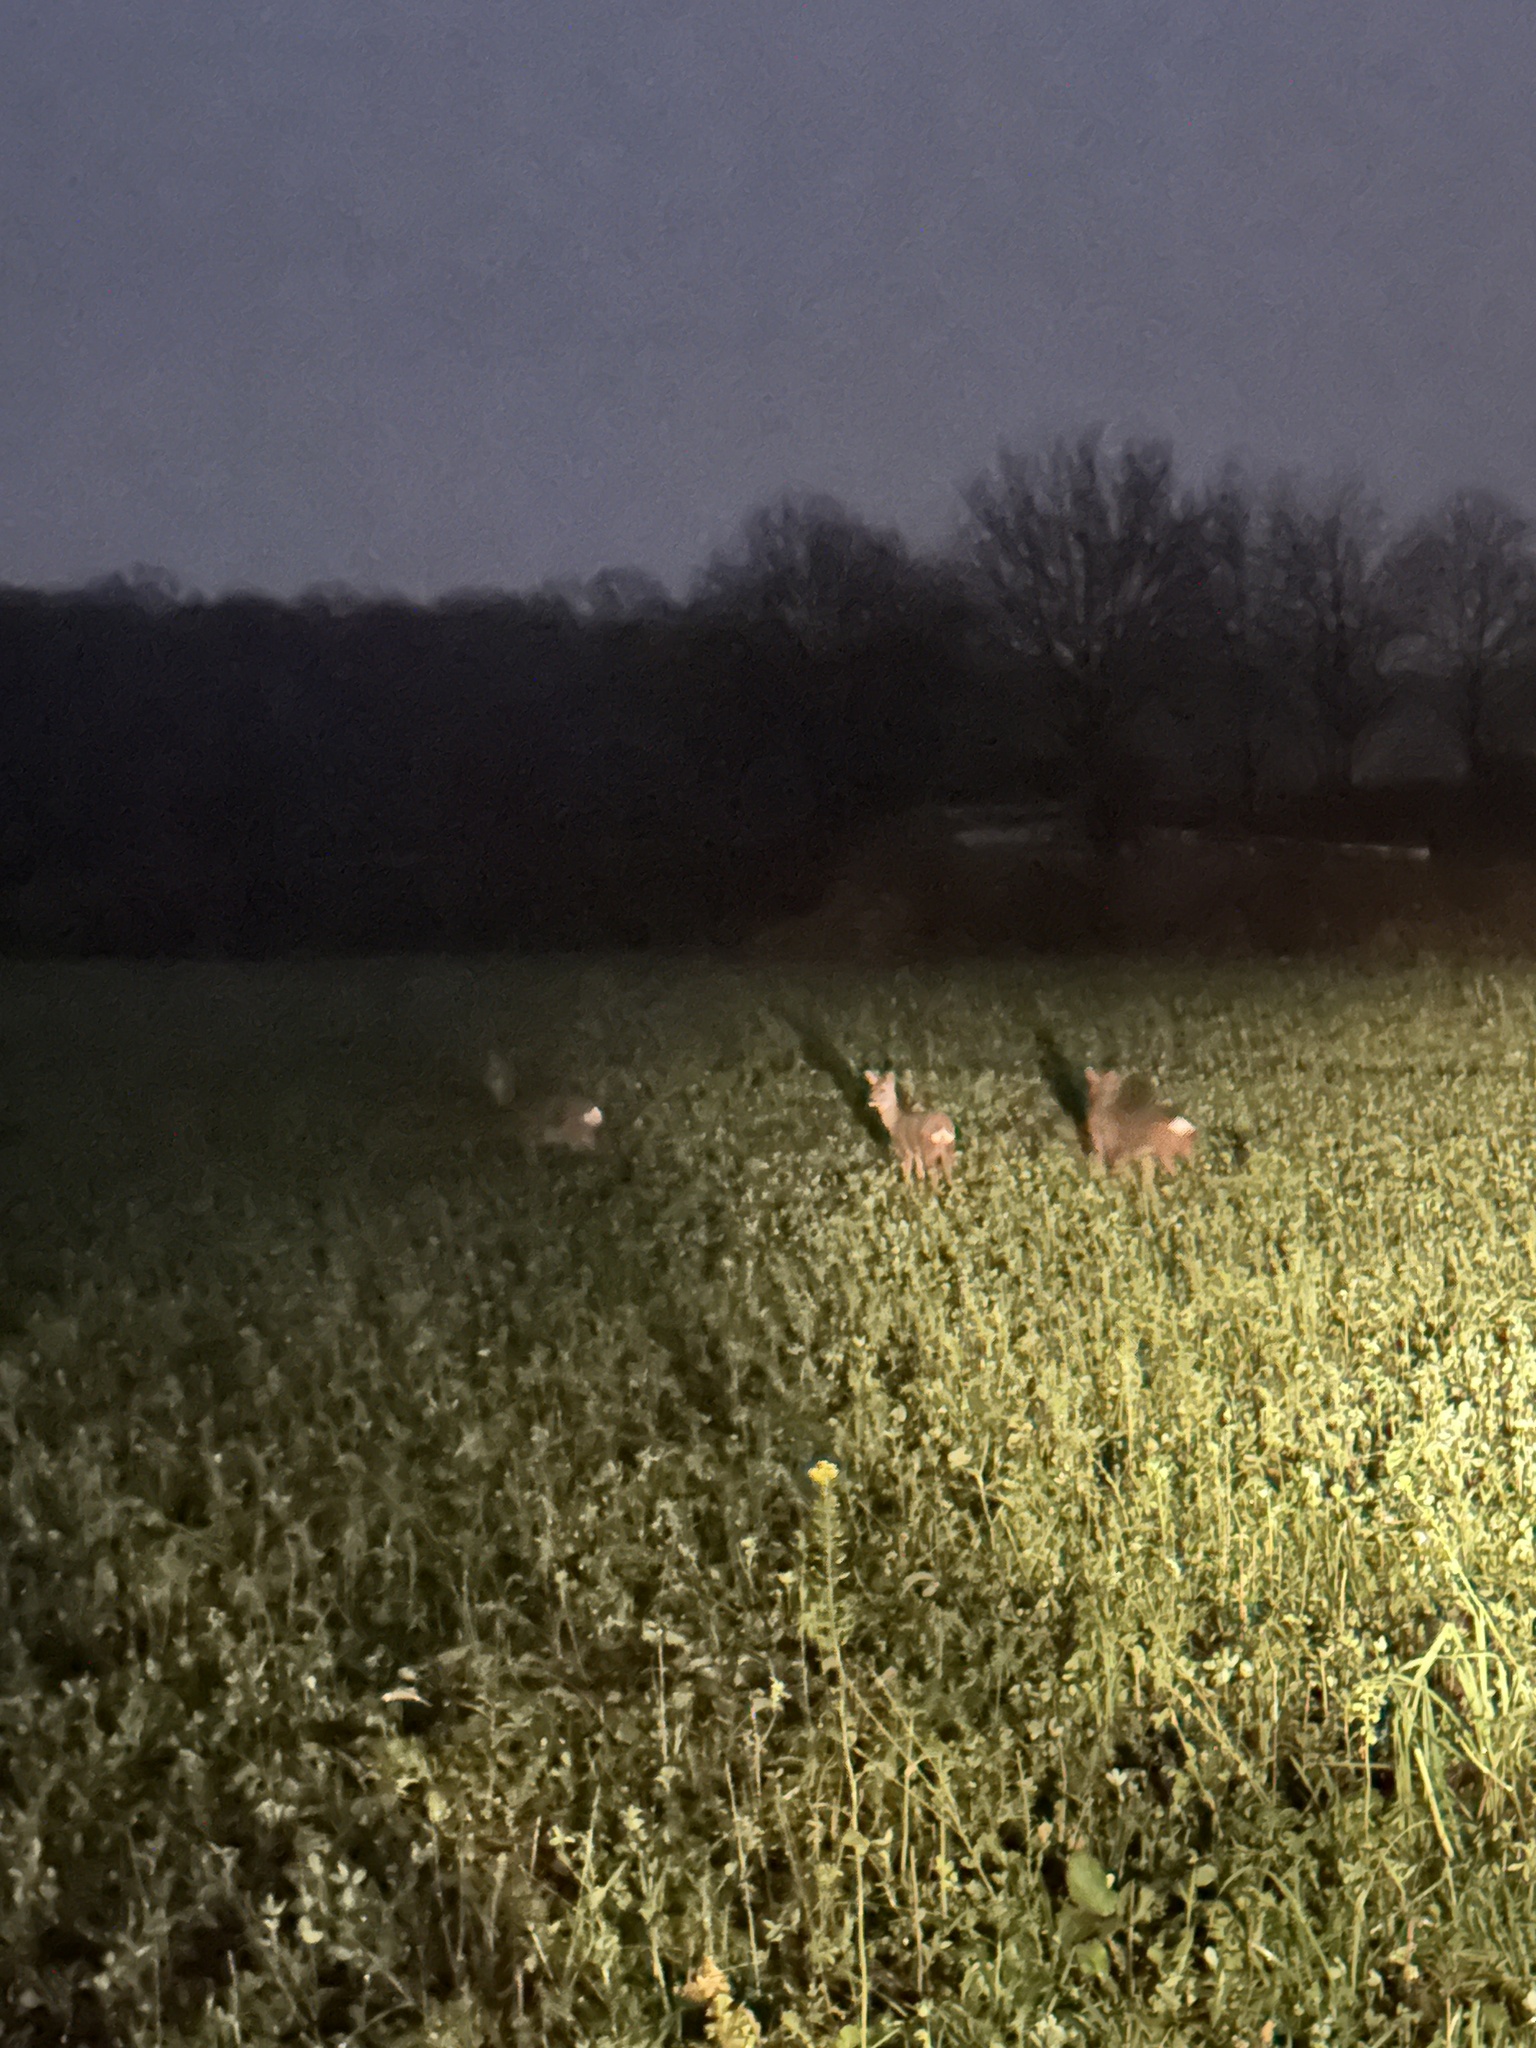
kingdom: Animalia
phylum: Chordata
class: Mammalia
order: Artiodactyla
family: Cervidae
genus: Capreolus
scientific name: Capreolus capreolus
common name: Western roe deer
